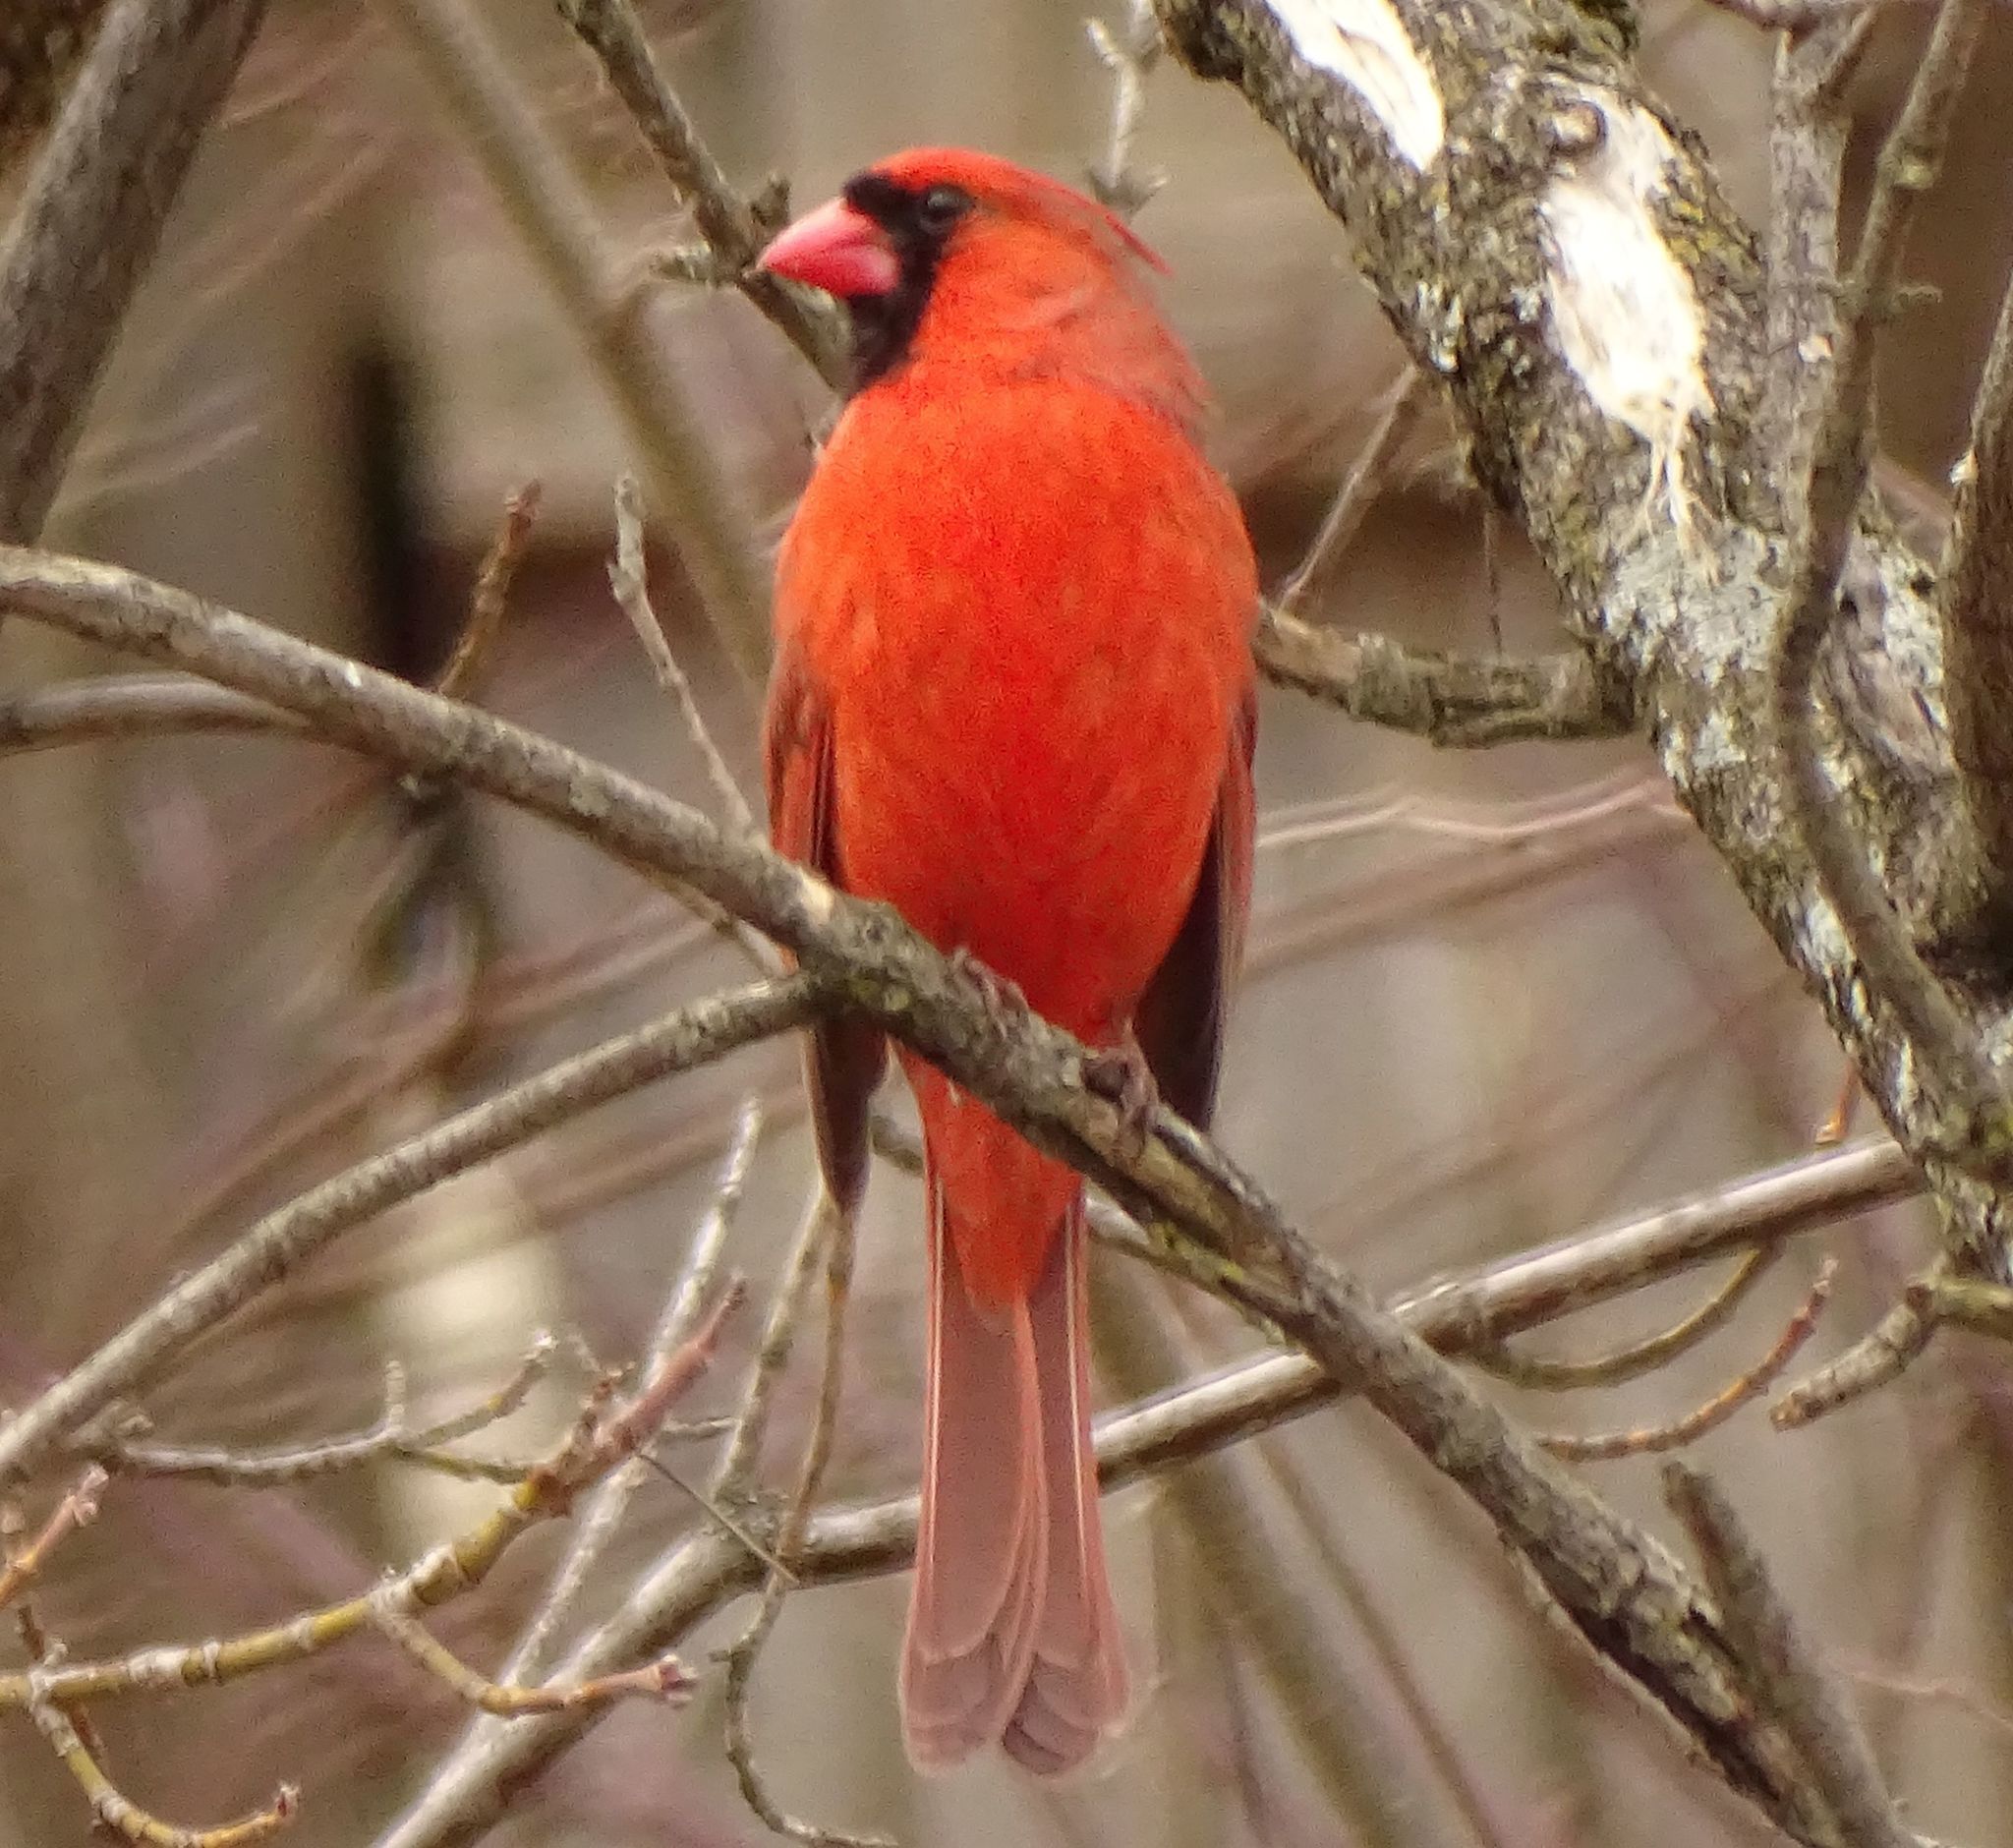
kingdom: Animalia
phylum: Chordata
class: Aves
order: Passeriformes
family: Cardinalidae
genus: Cardinalis
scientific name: Cardinalis cardinalis
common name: Northern cardinal
